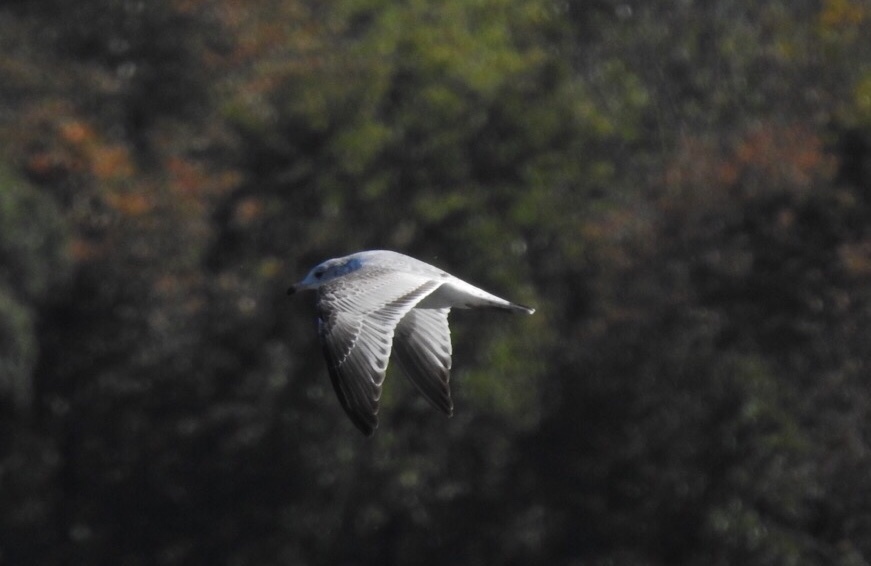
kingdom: Animalia
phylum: Chordata
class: Aves
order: Charadriiformes
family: Laridae
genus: Larus
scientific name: Larus delawarensis
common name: Ring-billed gull
